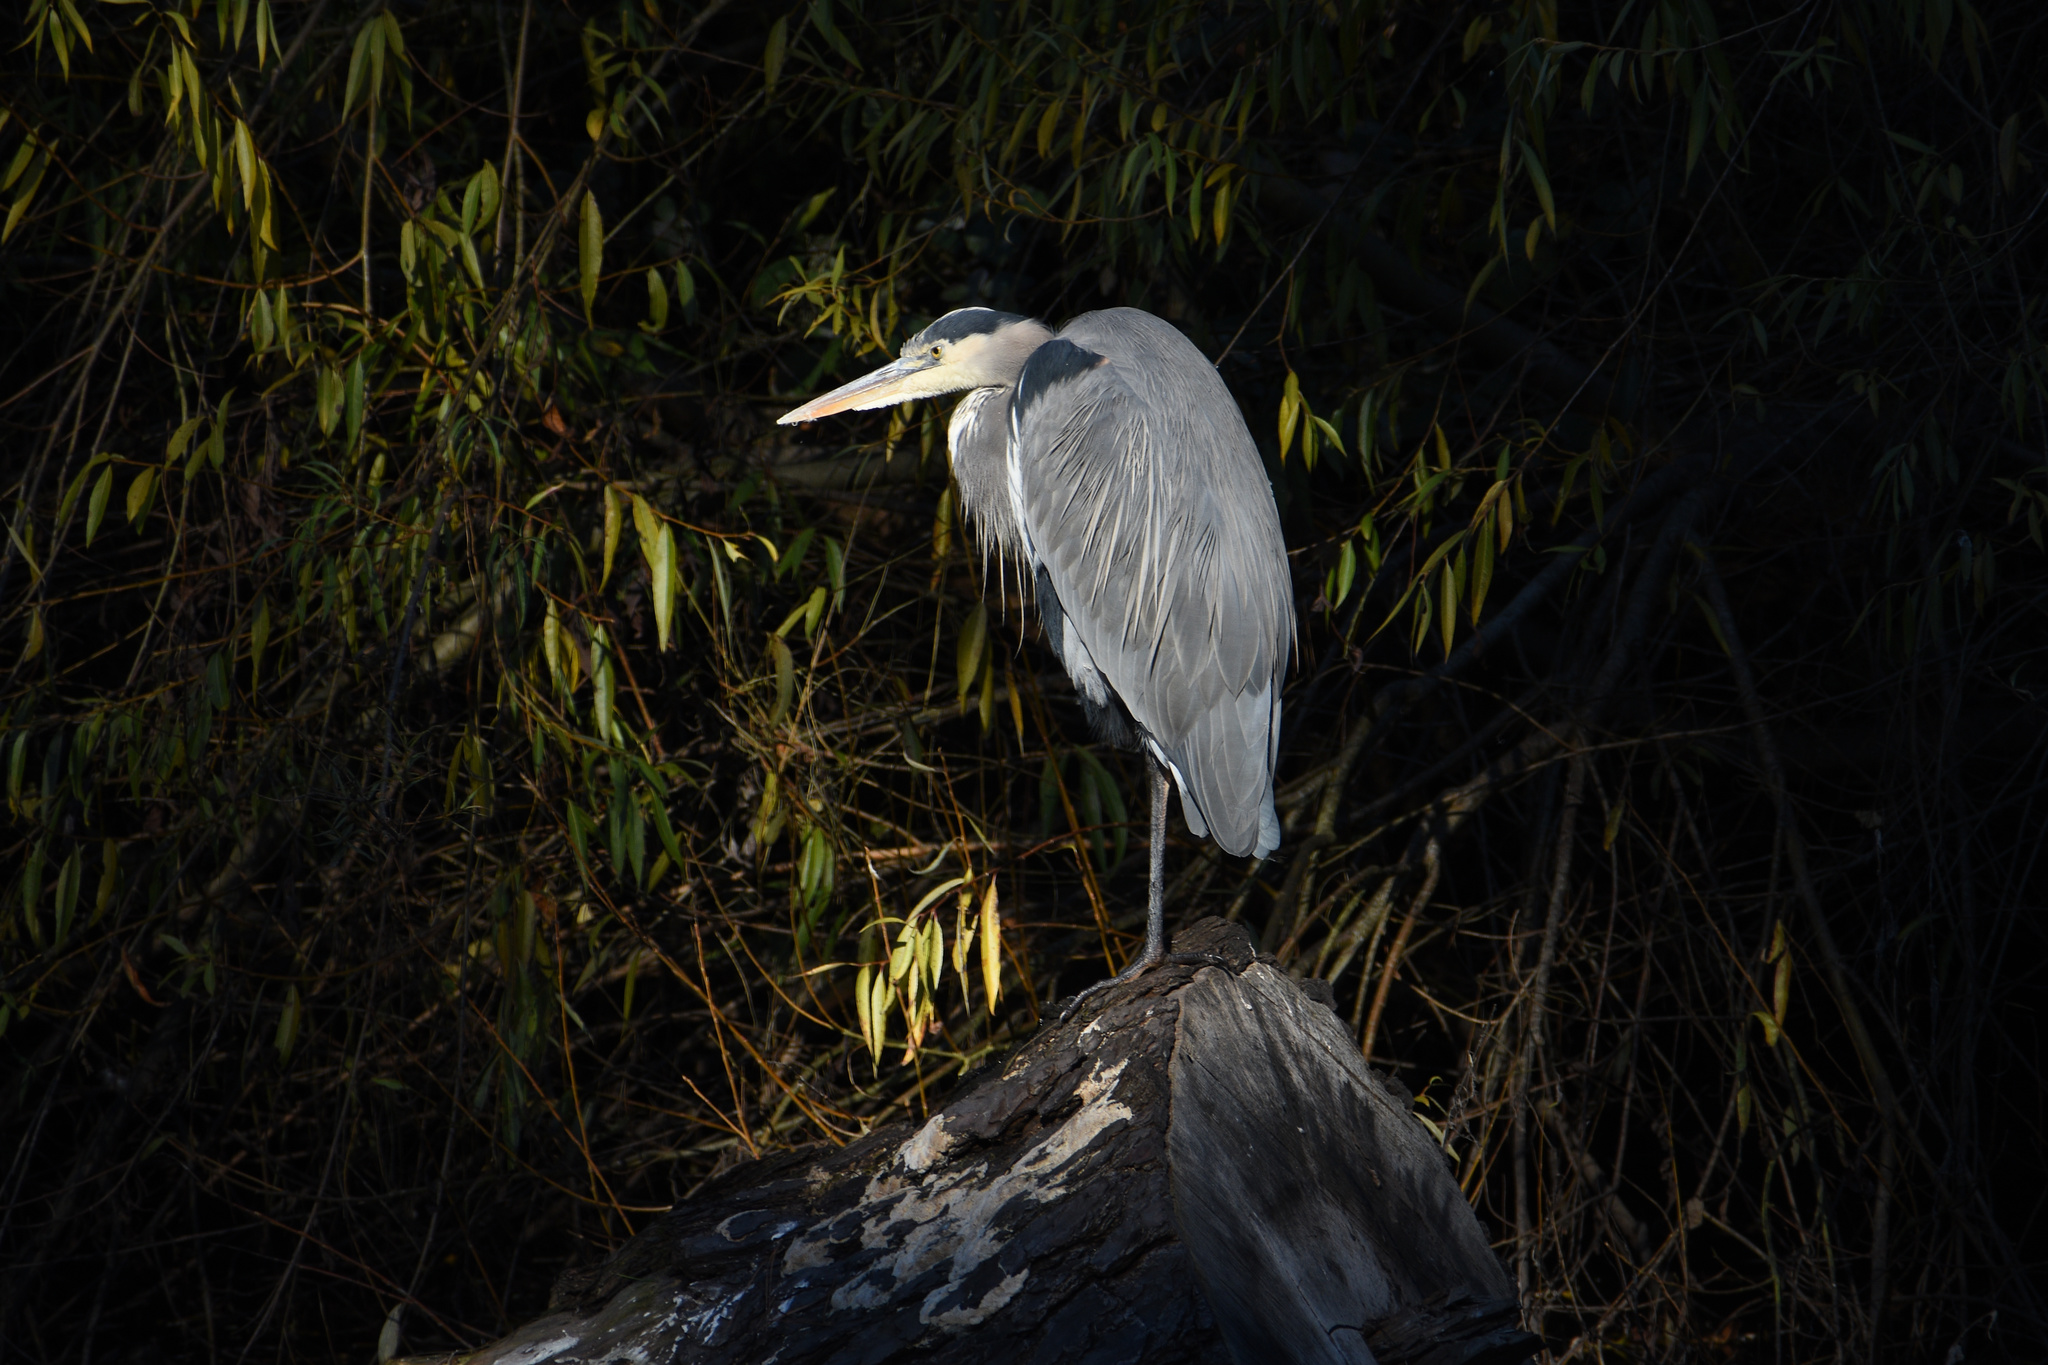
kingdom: Animalia
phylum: Chordata
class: Aves
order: Pelecaniformes
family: Ardeidae
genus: Ardea
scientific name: Ardea herodias
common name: Great blue heron
